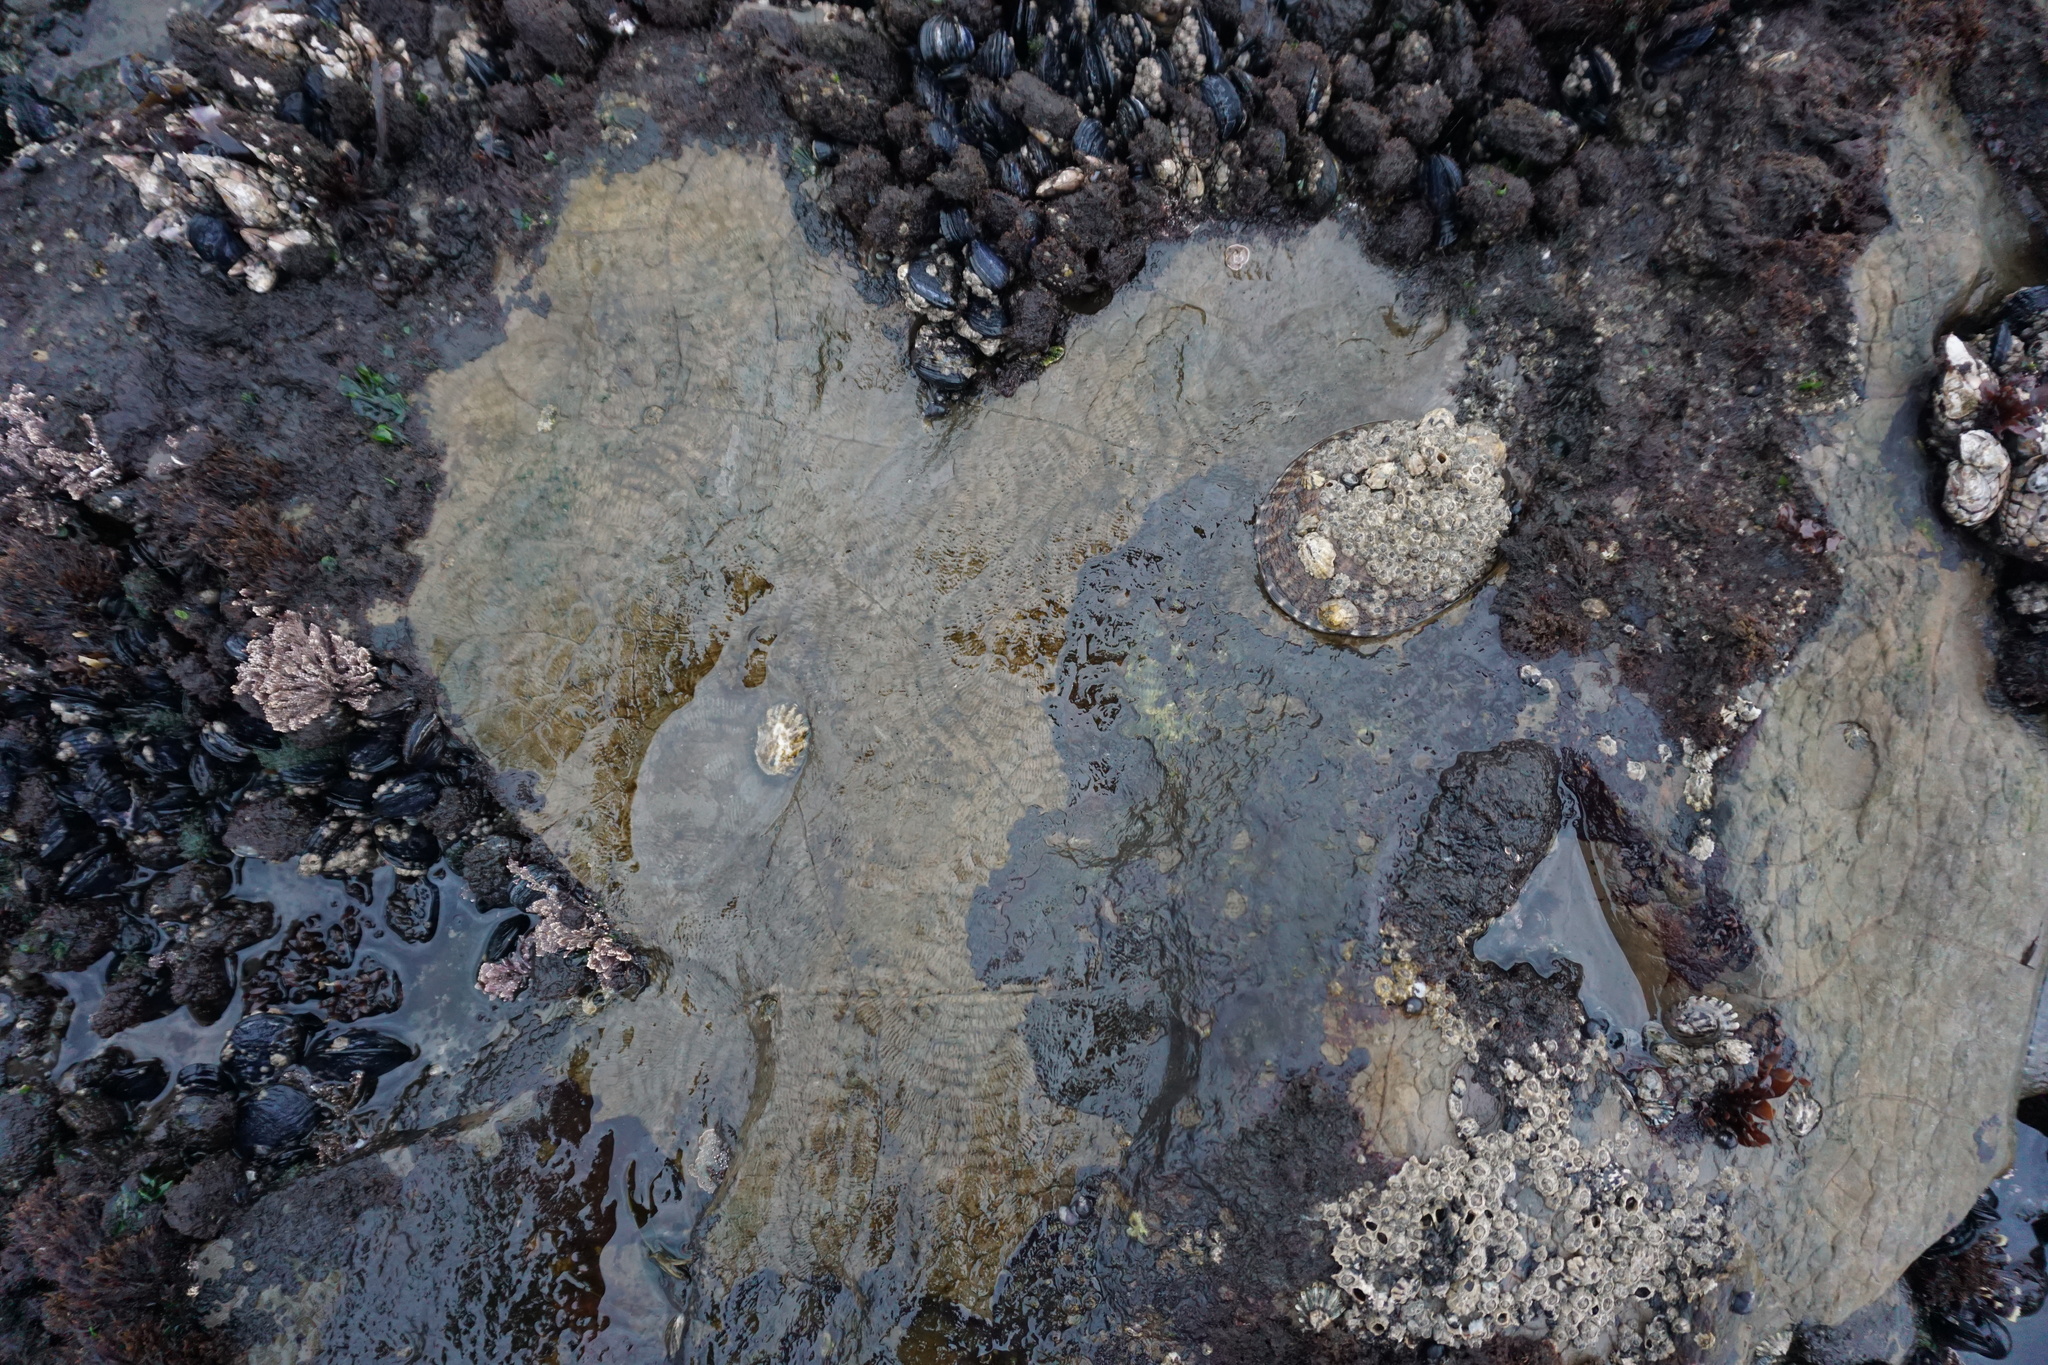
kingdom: Animalia
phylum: Mollusca
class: Gastropoda
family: Lottiidae
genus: Lottia
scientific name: Lottia gigantea
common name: Owl limpet
